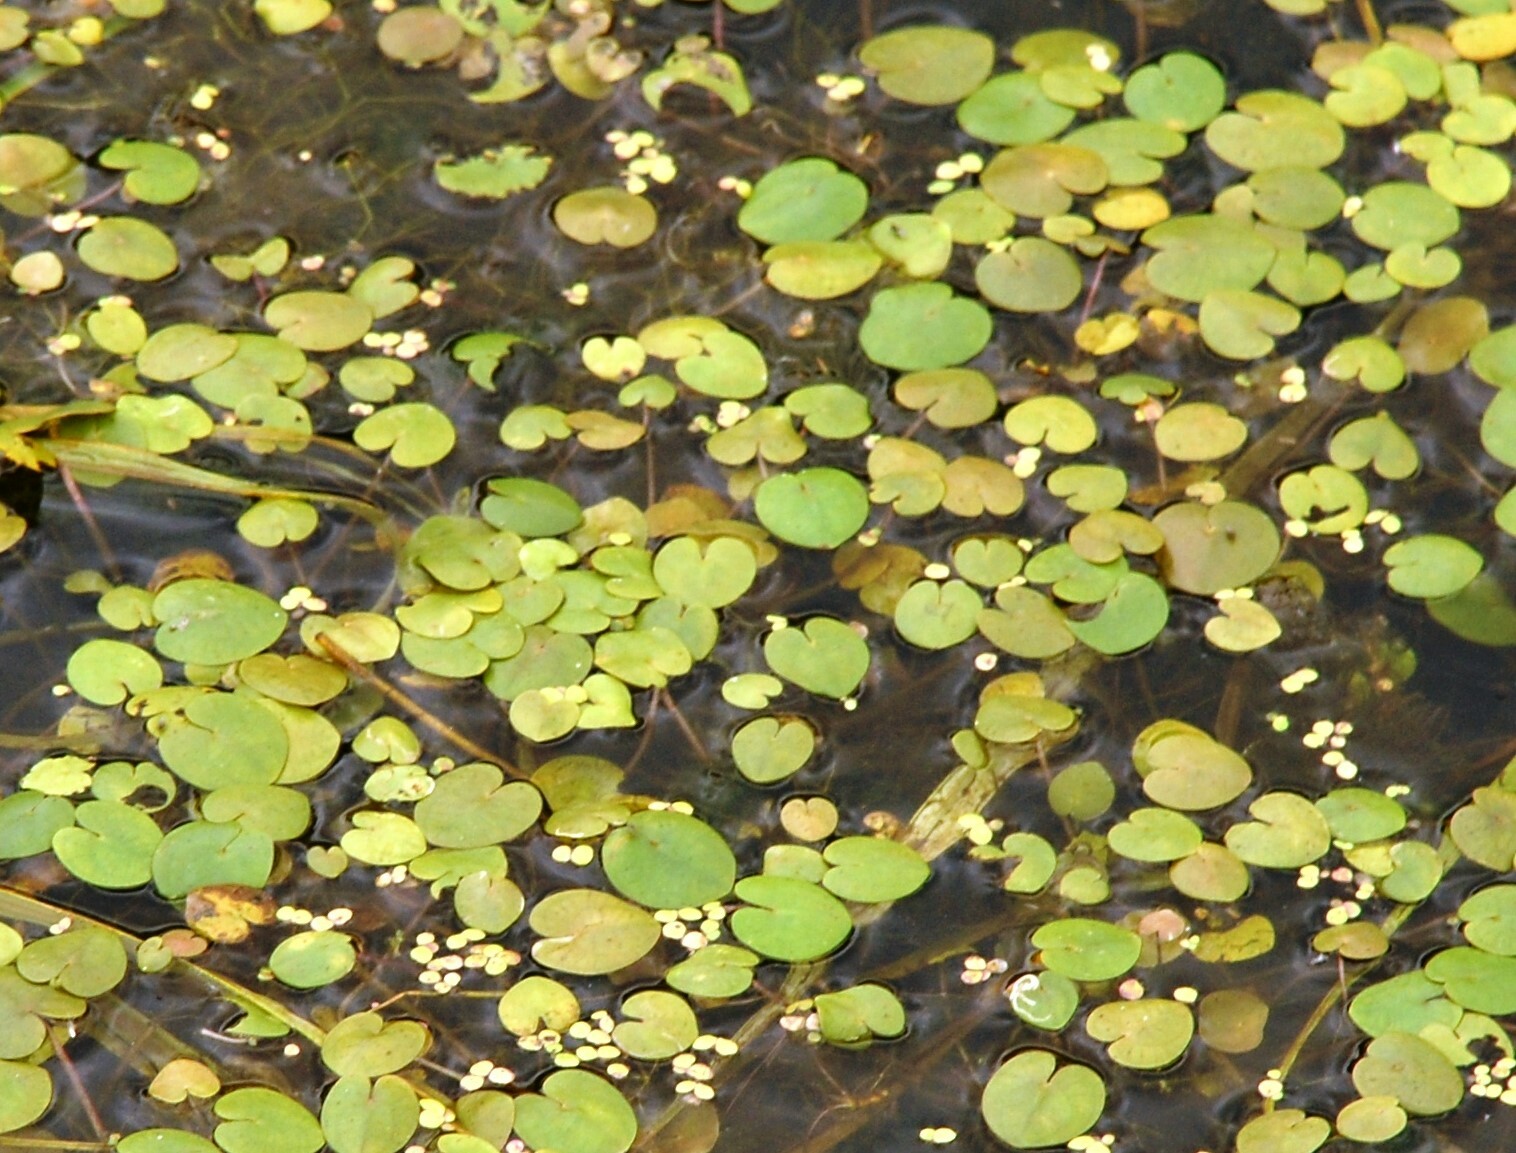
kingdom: Plantae
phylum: Tracheophyta
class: Liliopsida
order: Alismatales
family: Hydrocharitaceae
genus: Hydrocharis
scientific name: Hydrocharis morsus-ranae
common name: Frogbit
